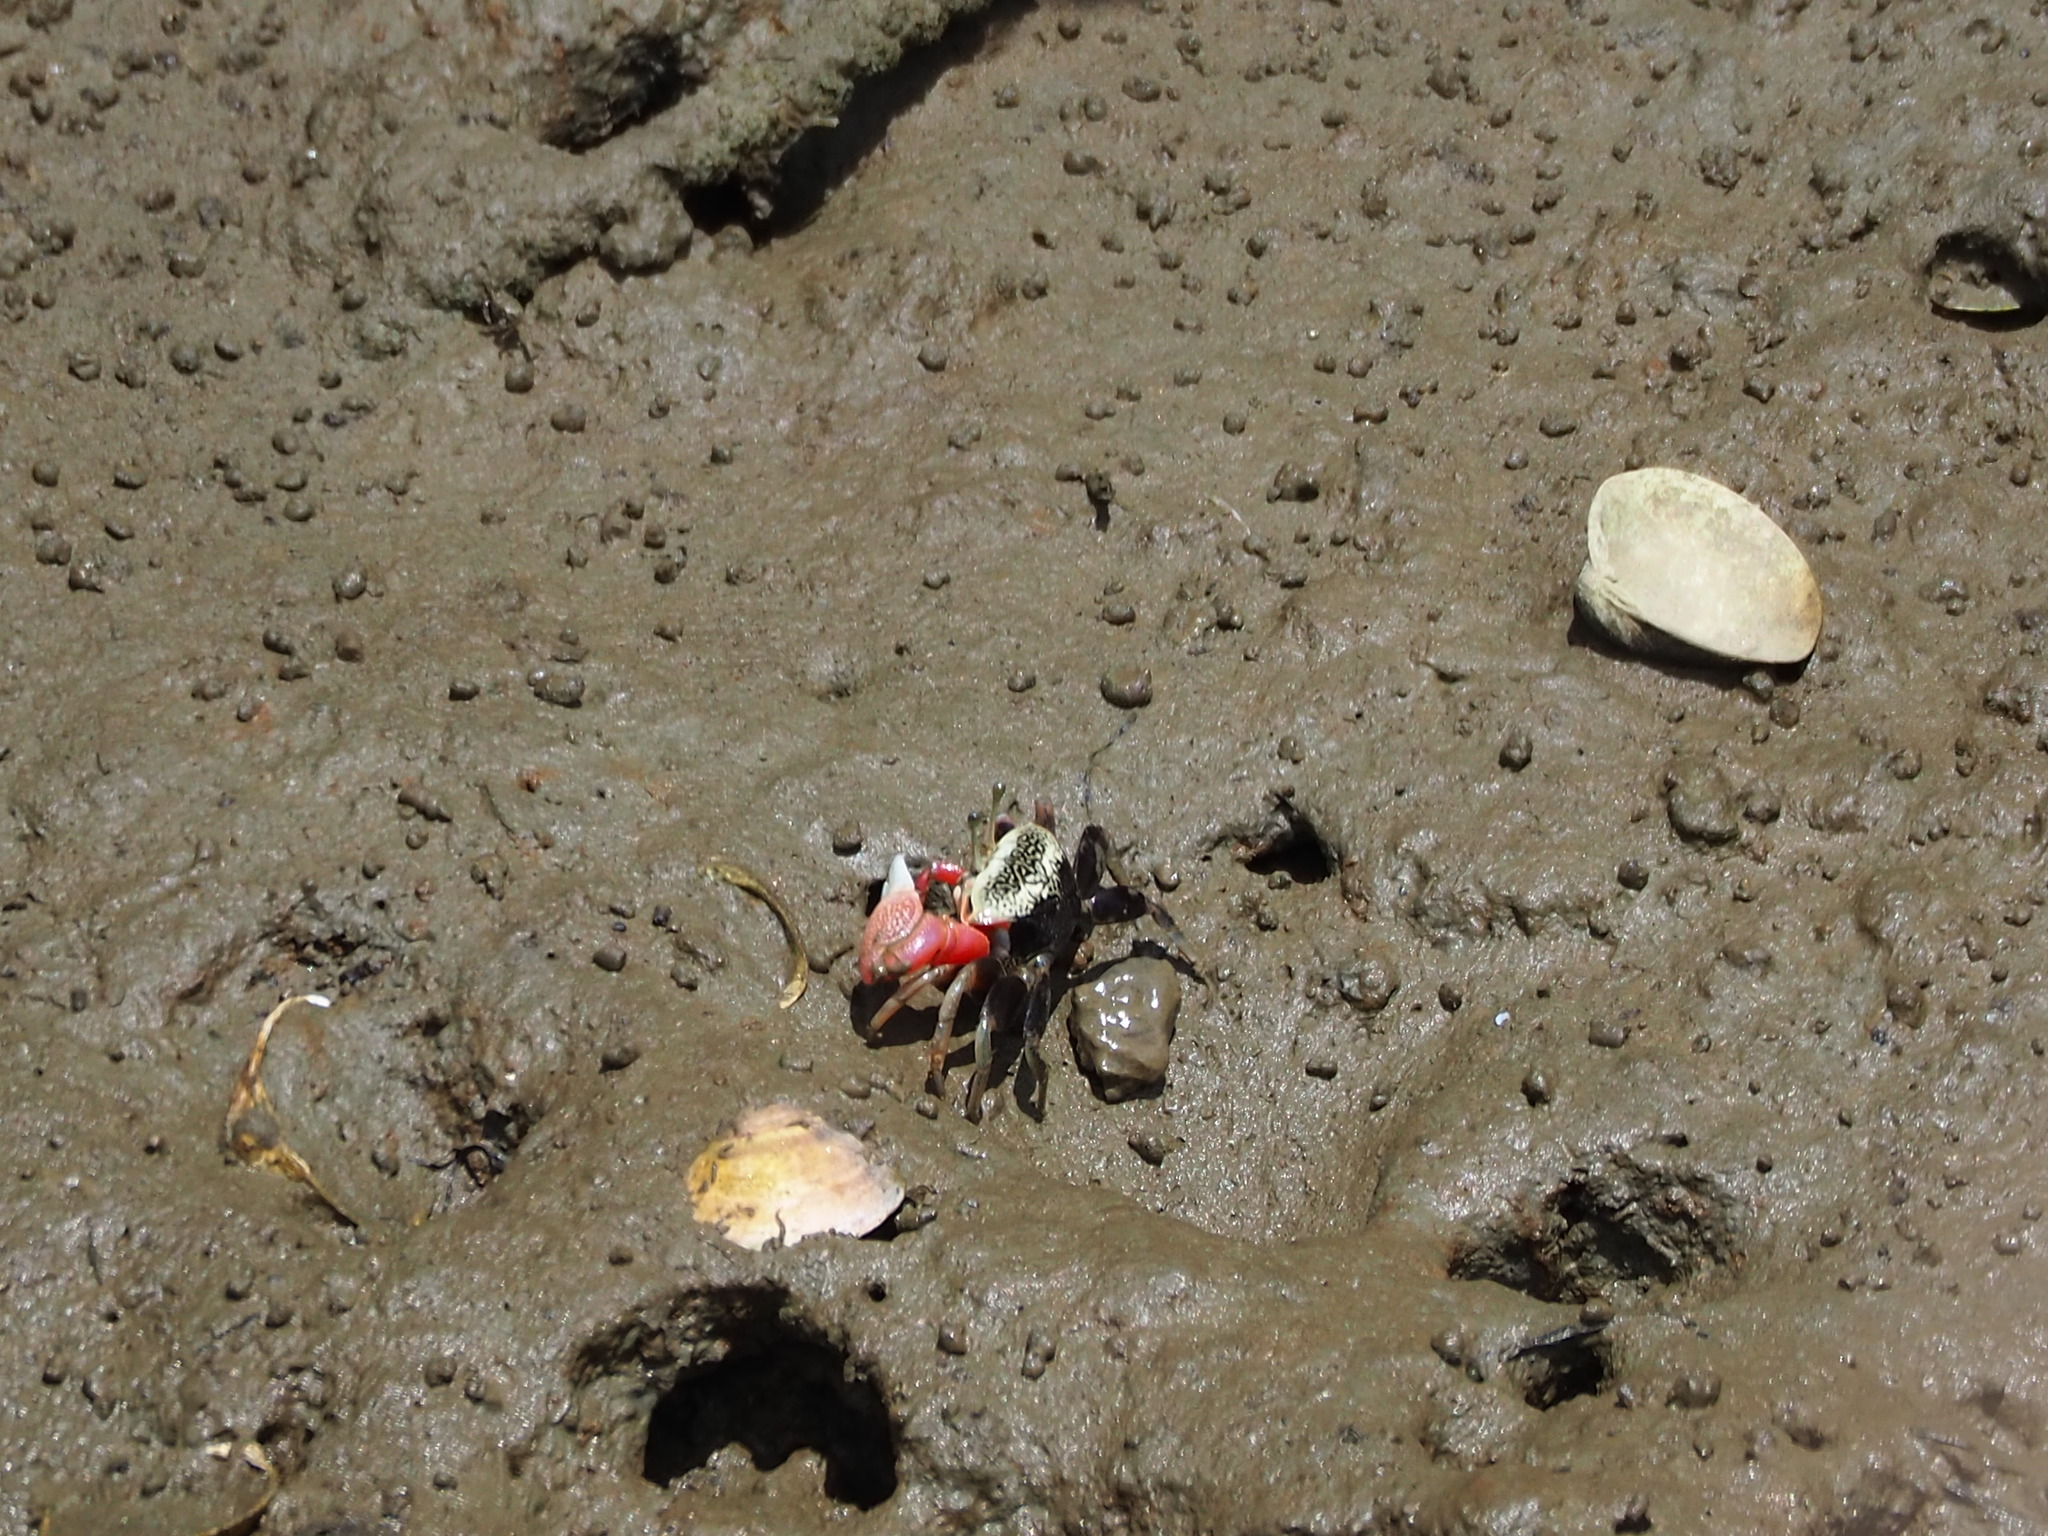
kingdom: Animalia
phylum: Arthropoda
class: Malacostraca
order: Decapoda
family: Ocypodidae
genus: Tubuca
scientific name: Tubuca arcuata
